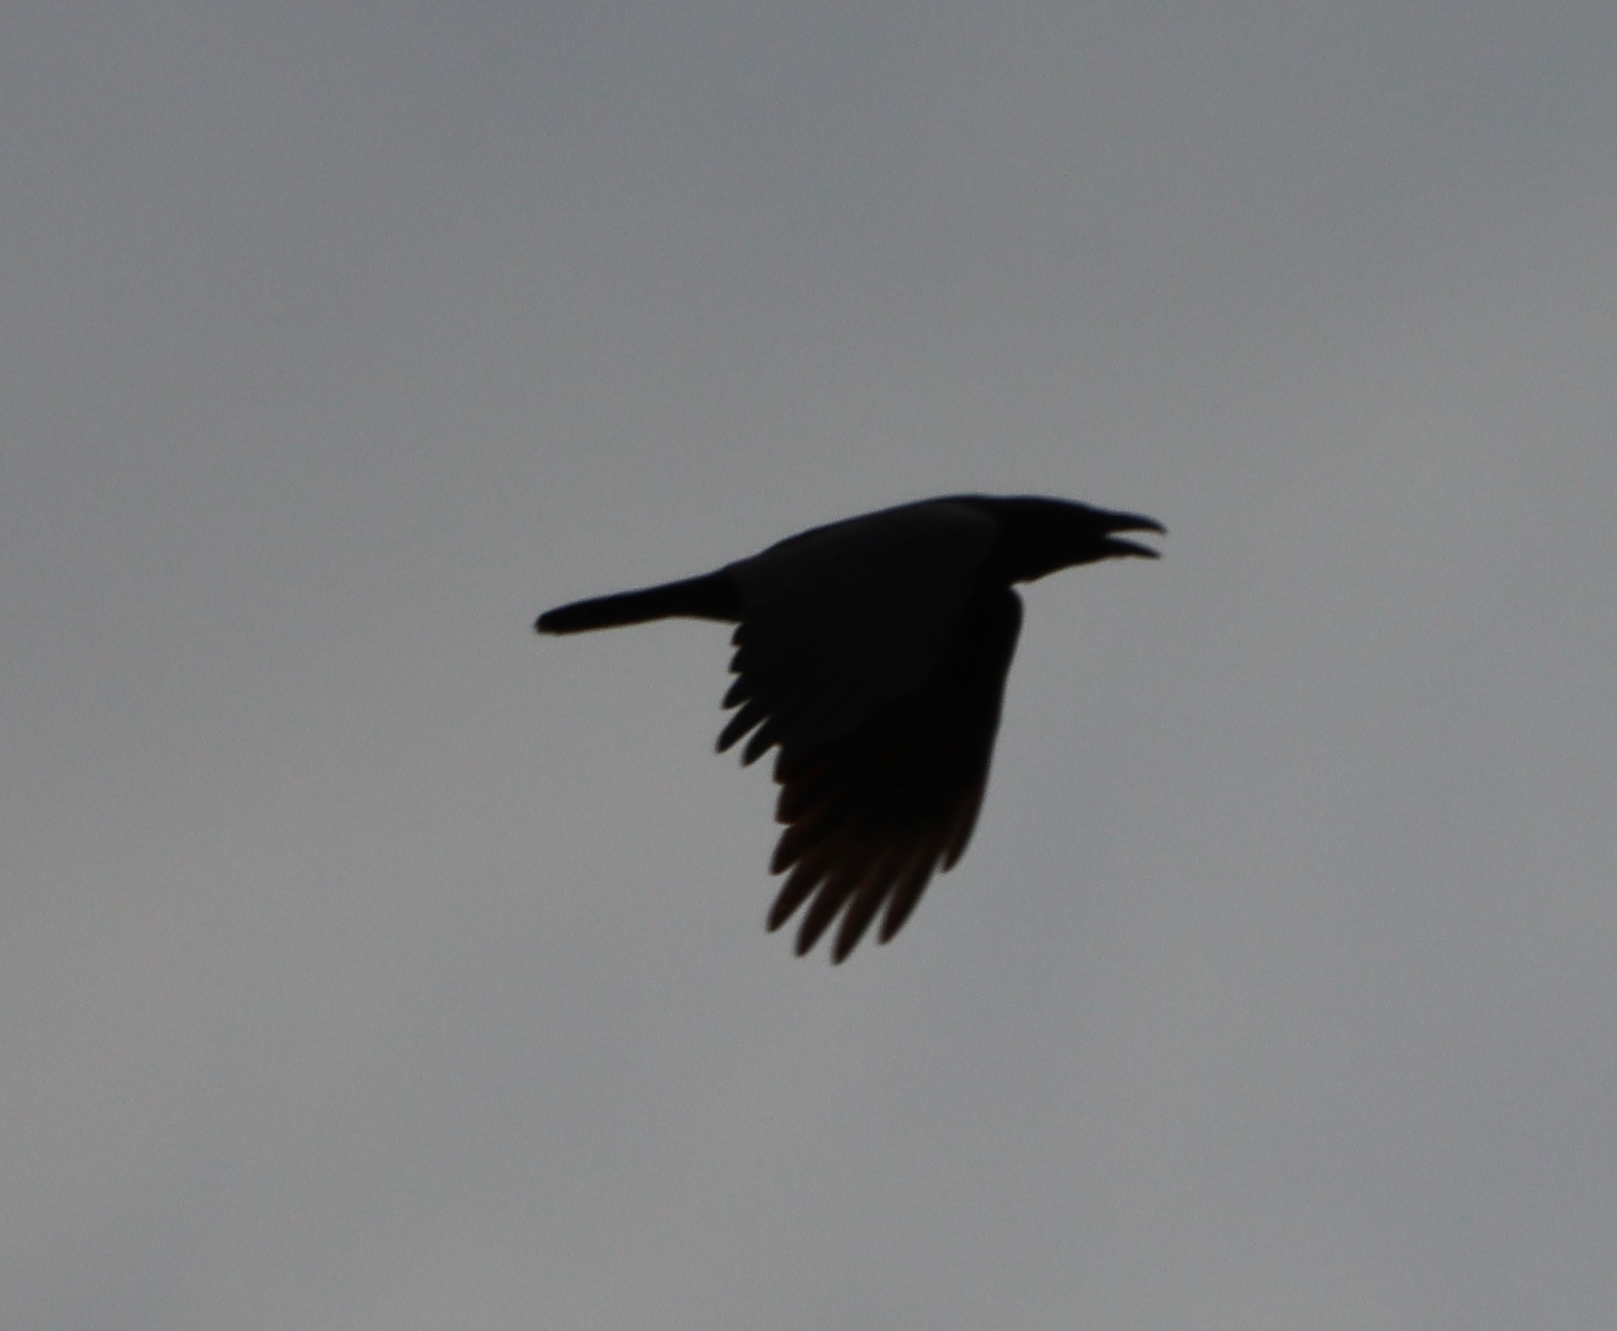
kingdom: Animalia
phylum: Chordata
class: Aves
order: Passeriformes
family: Corvidae
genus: Corvus
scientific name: Corvus corax
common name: Common raven
